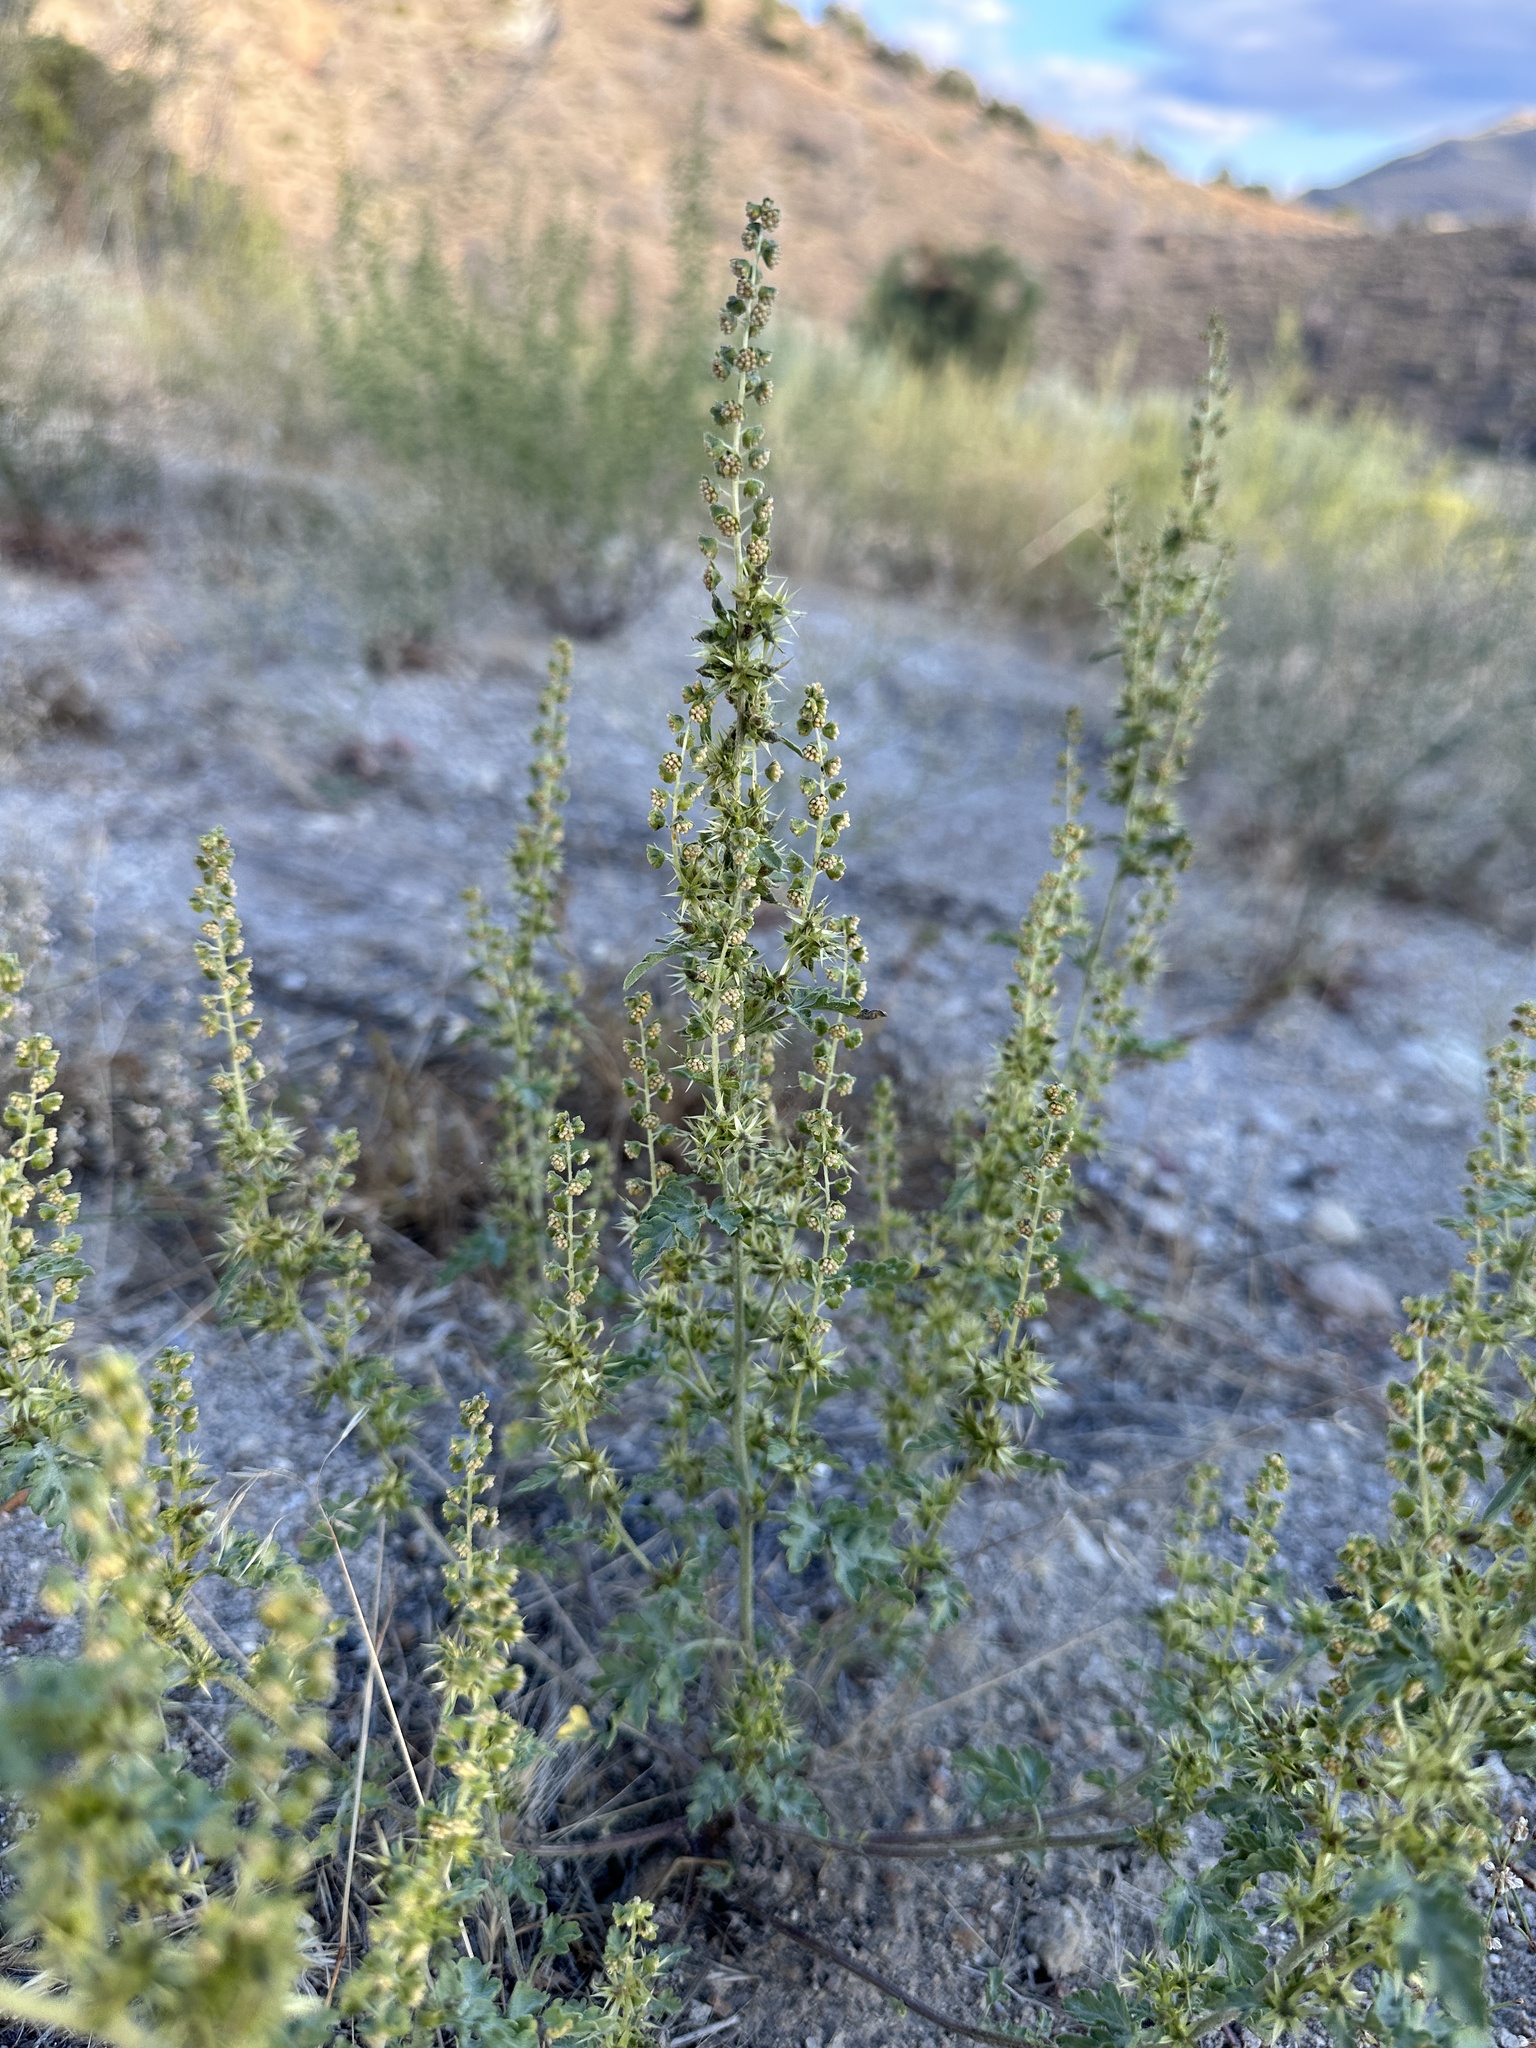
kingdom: Plantae
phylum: Tracheophyta
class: Magnoliopsida
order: Asterales
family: Asteraceae
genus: Ambrosia
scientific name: Ambrosia acanthicarpa
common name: Hooker's bur ragweed
